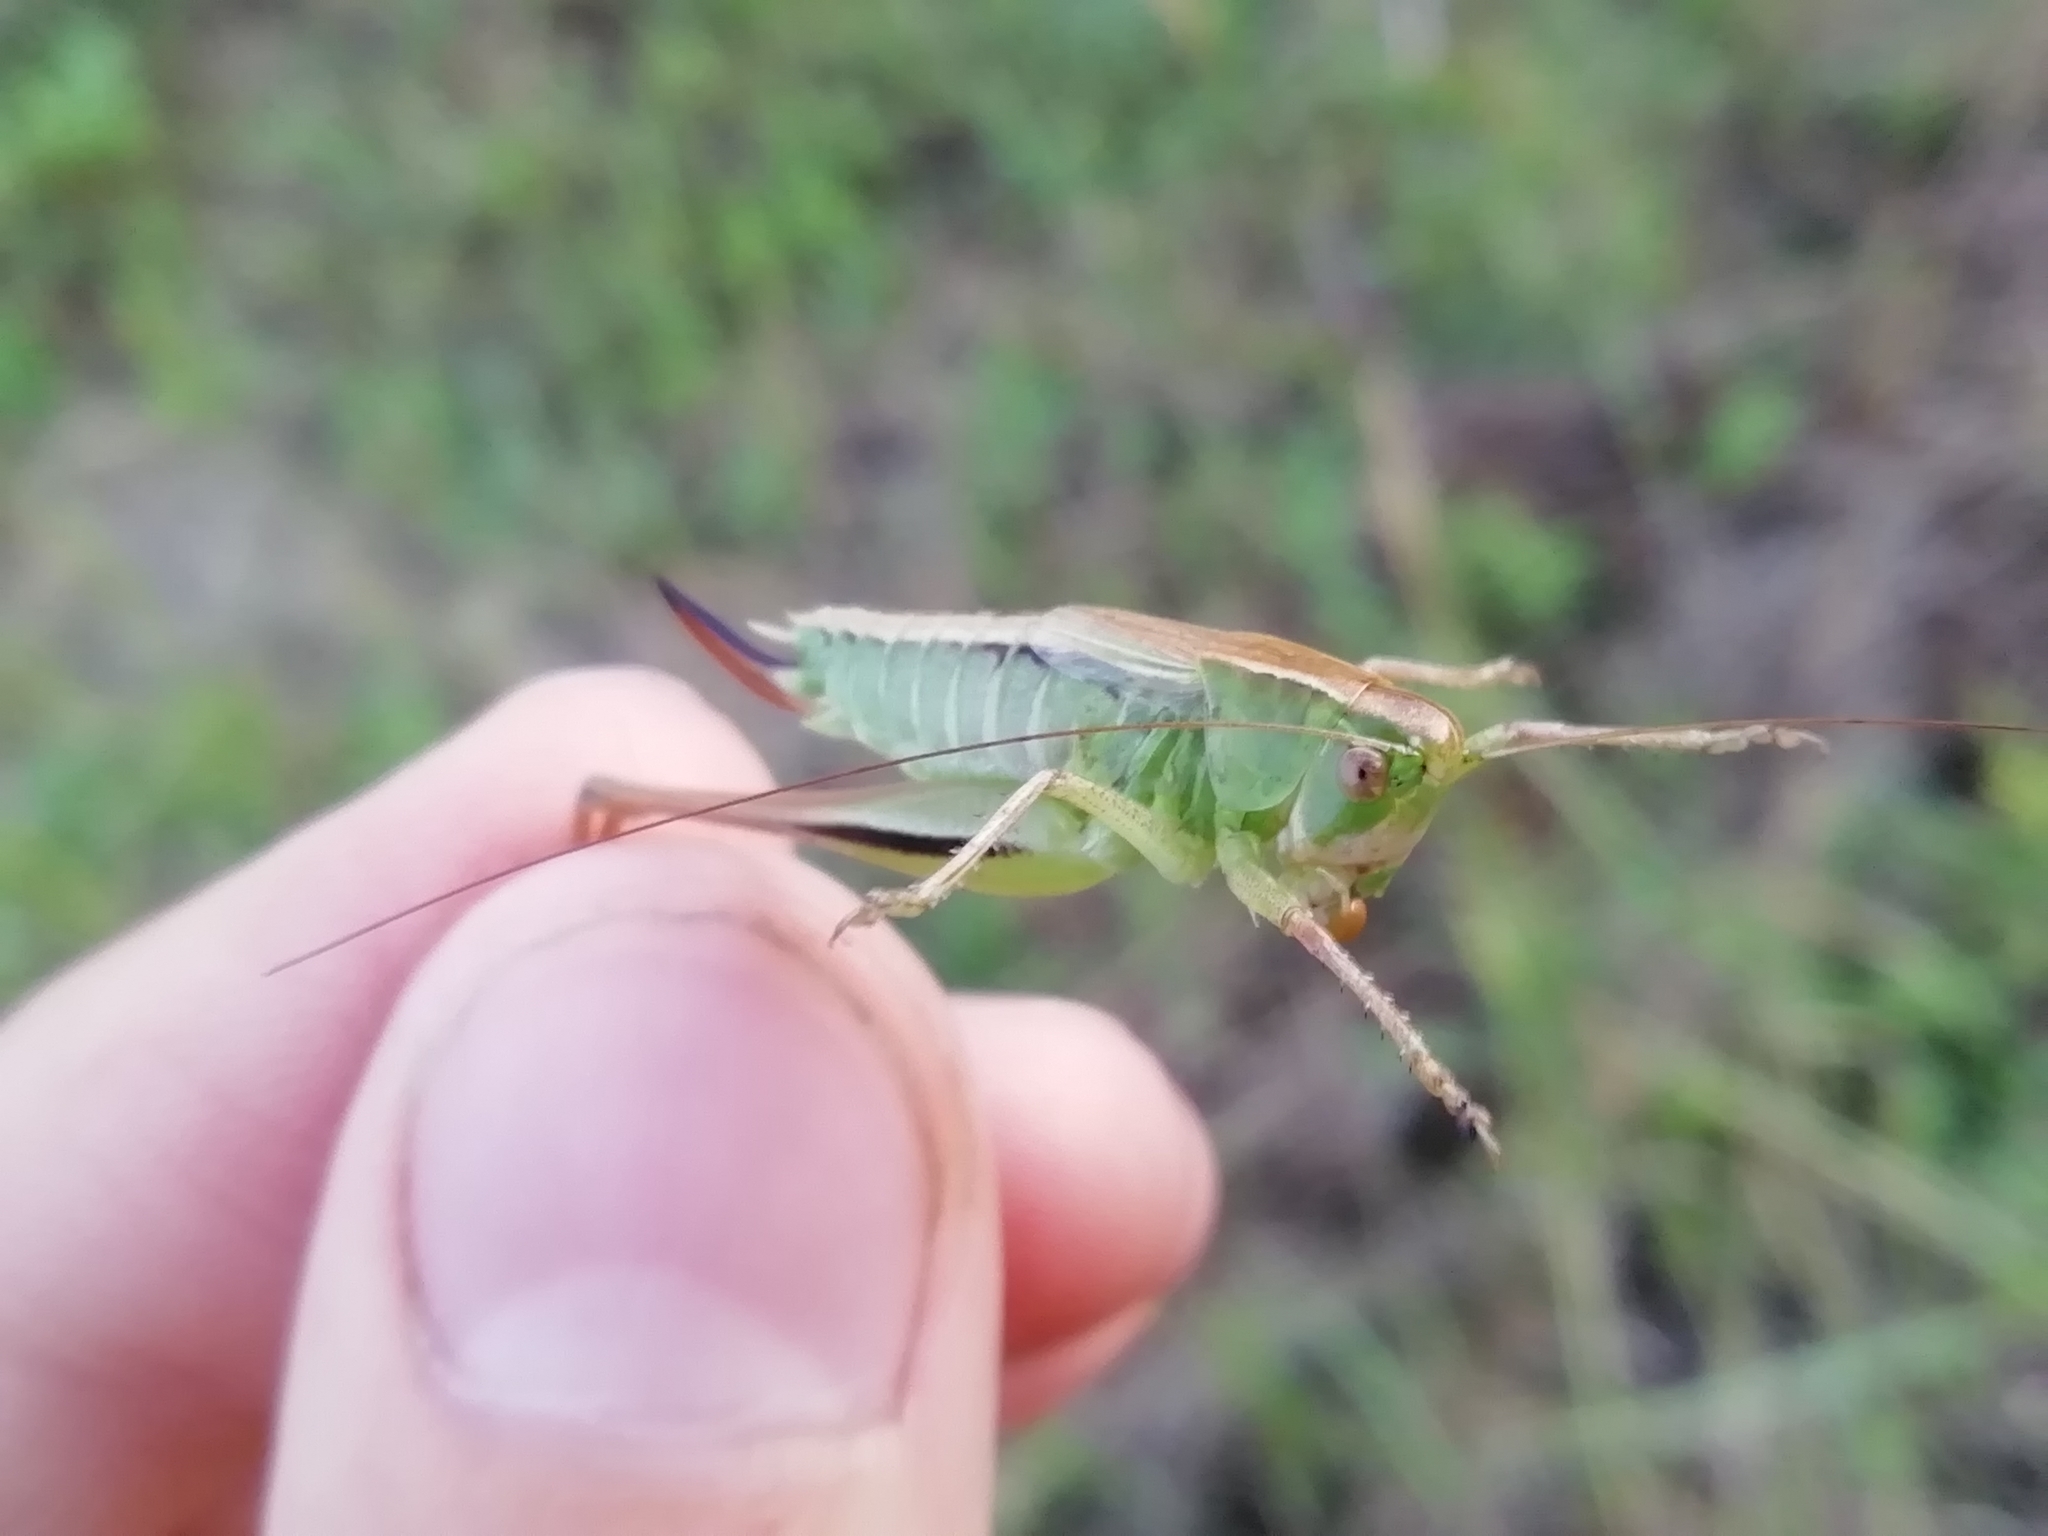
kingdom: Animalia
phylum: Arthropoda
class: Insecta
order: Orthoptera
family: Tettigoniidae
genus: Bicolorana
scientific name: Bicolorana bicolor
